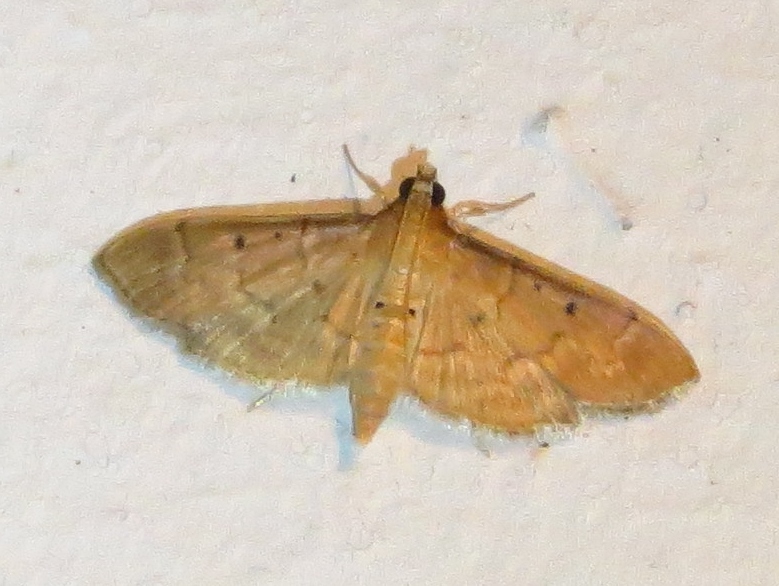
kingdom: Animalia
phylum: Arthropoda
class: Insecta
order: Lepidoptera
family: Crambidae
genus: Herpetogramma
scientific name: Herpetogramma bipunctalis
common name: Southern beet webworm
